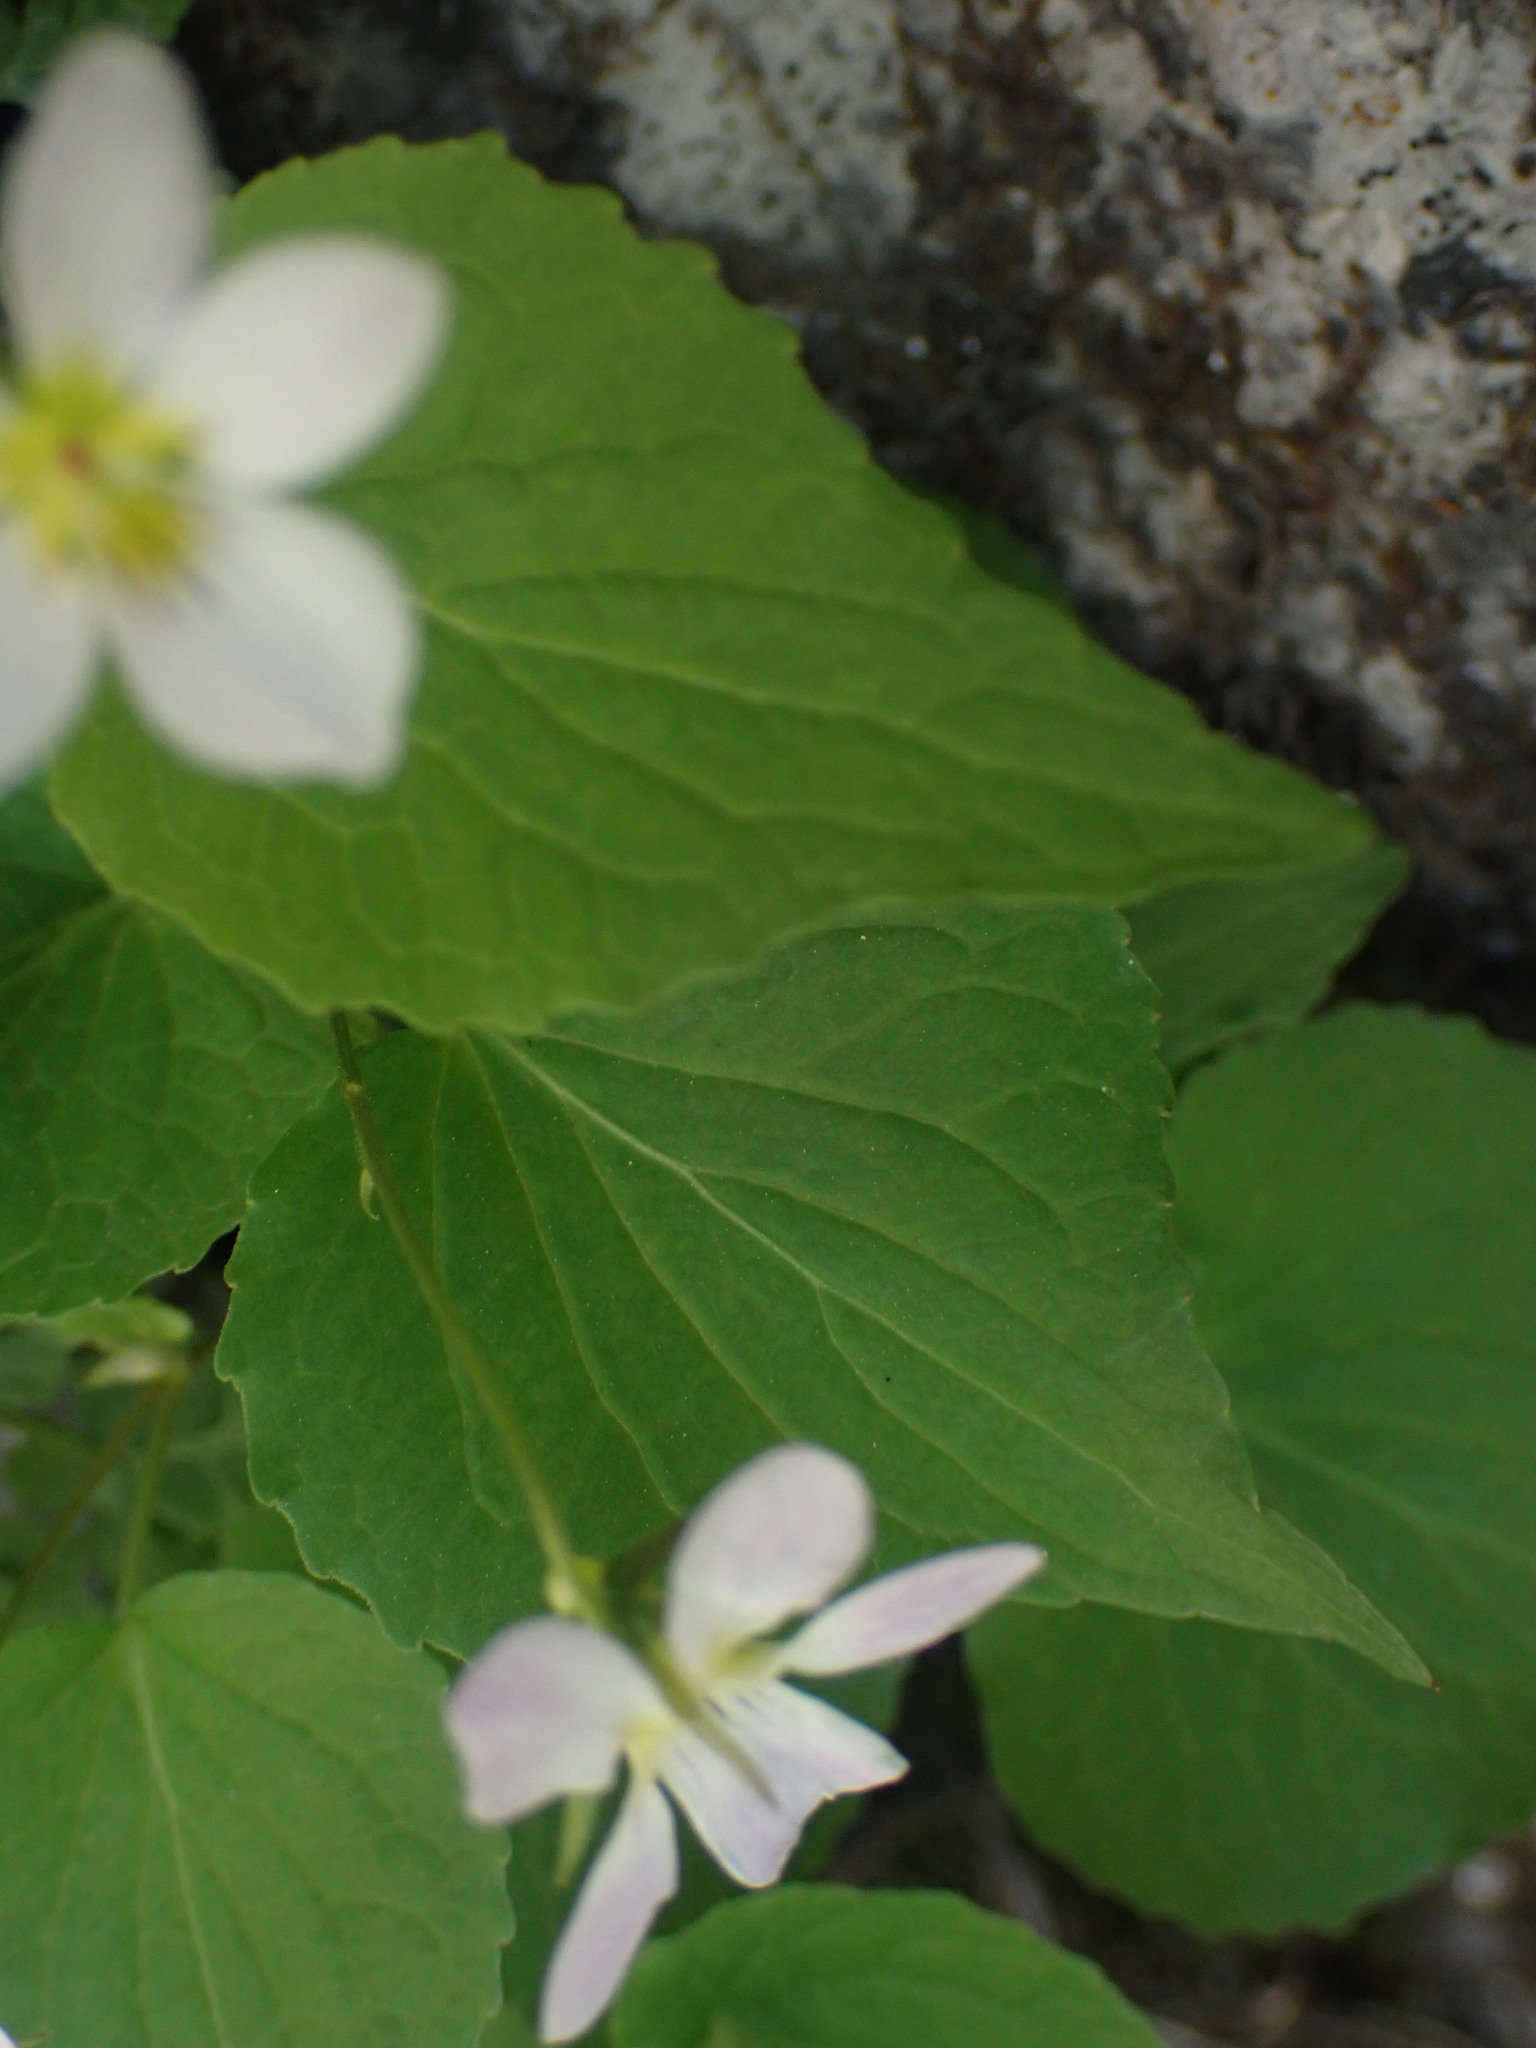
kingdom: Plantae
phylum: Tracheophyta
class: Magnoliopsida
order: Malpighiales
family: Violaceae
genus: Viola
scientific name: Viola canadensis
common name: Canada violet
